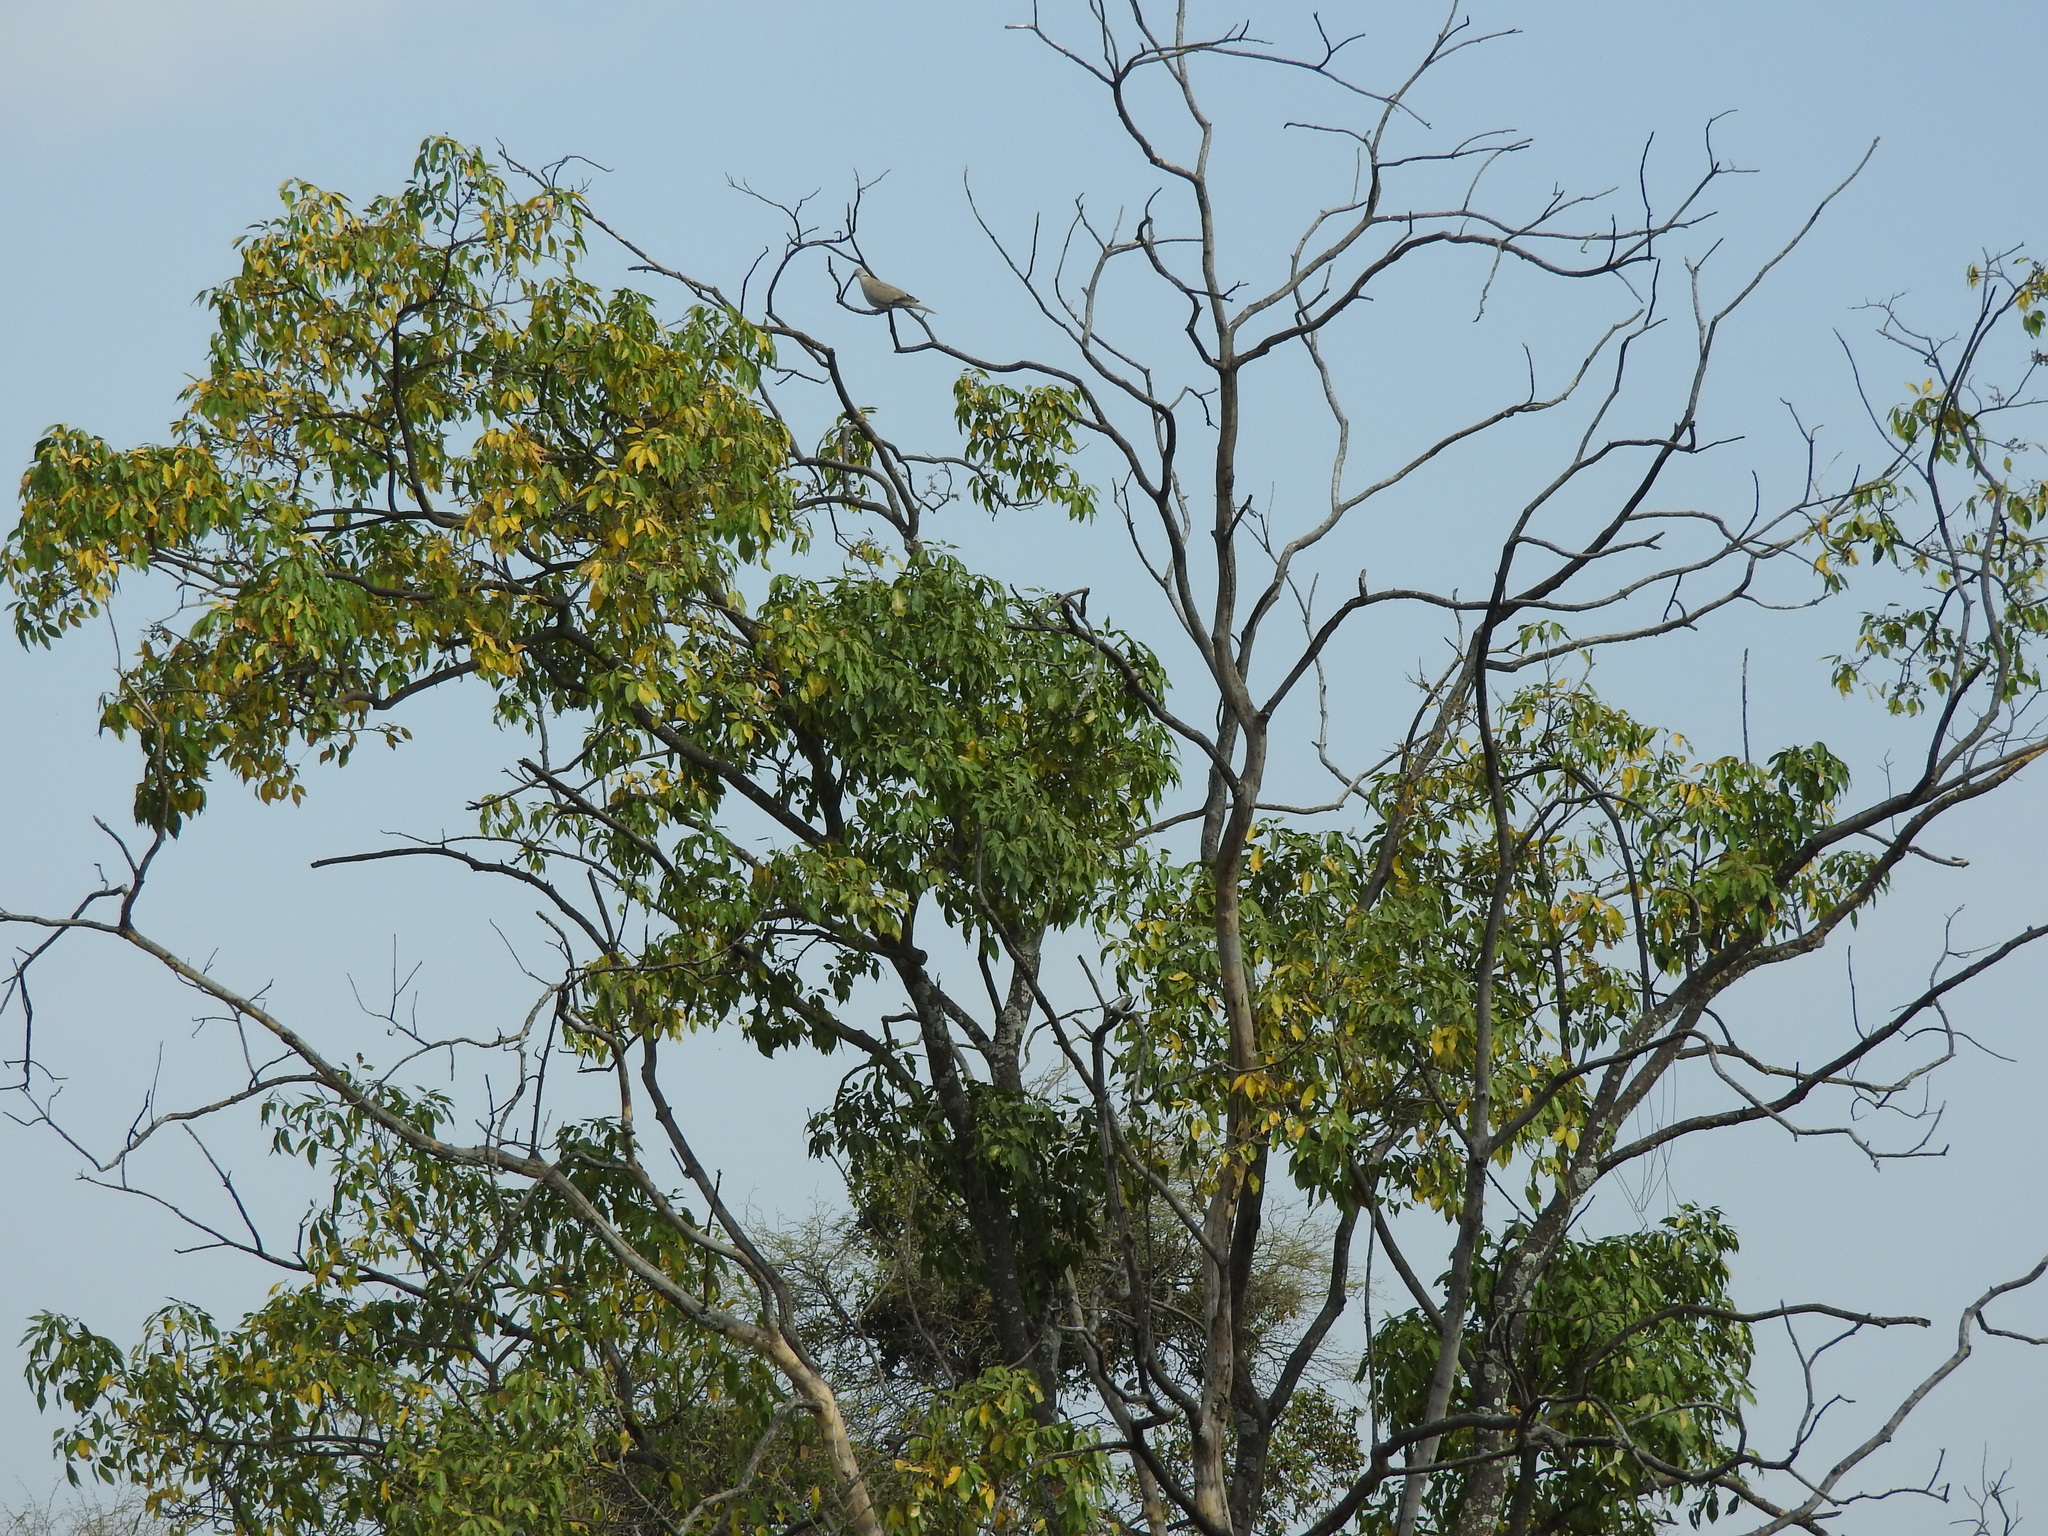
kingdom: Animalia
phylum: Chordata
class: Aves
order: Columbiformes
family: Columbidae
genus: Streptopelia
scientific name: Streptopelia decaocto
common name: Eurasian collared dove
